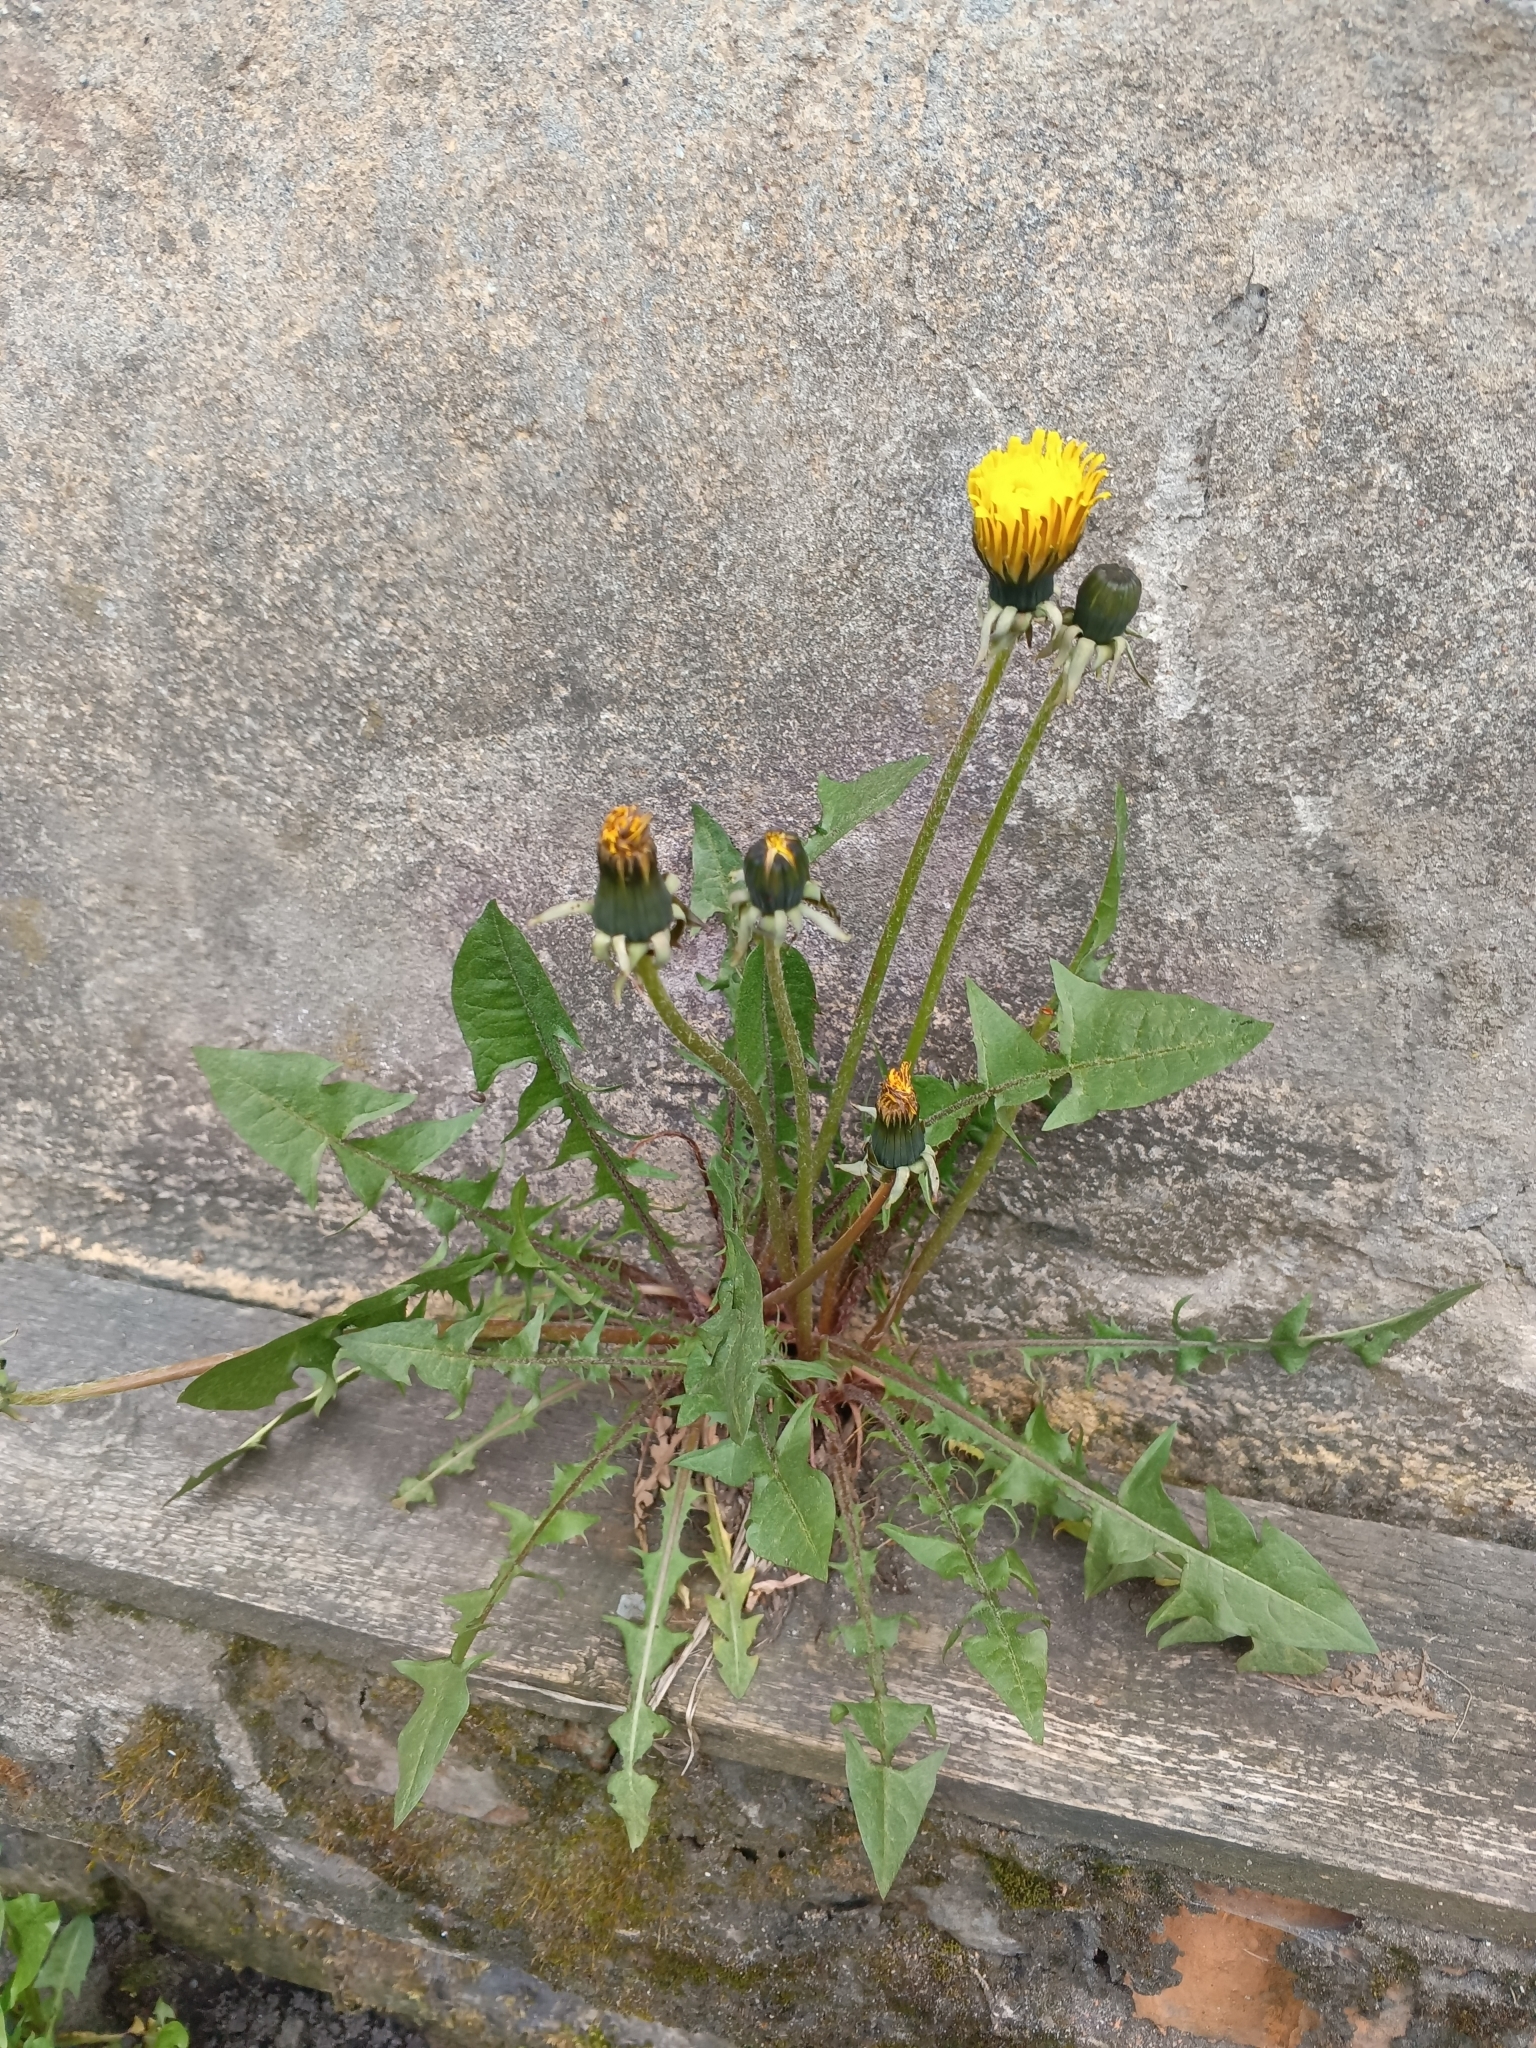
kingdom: Plantae
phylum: Tracheophyta
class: Magnoliopsida
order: Asterales
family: Asteraceae
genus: Taraxacum
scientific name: Taraxacum officinale
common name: Common dandelion
